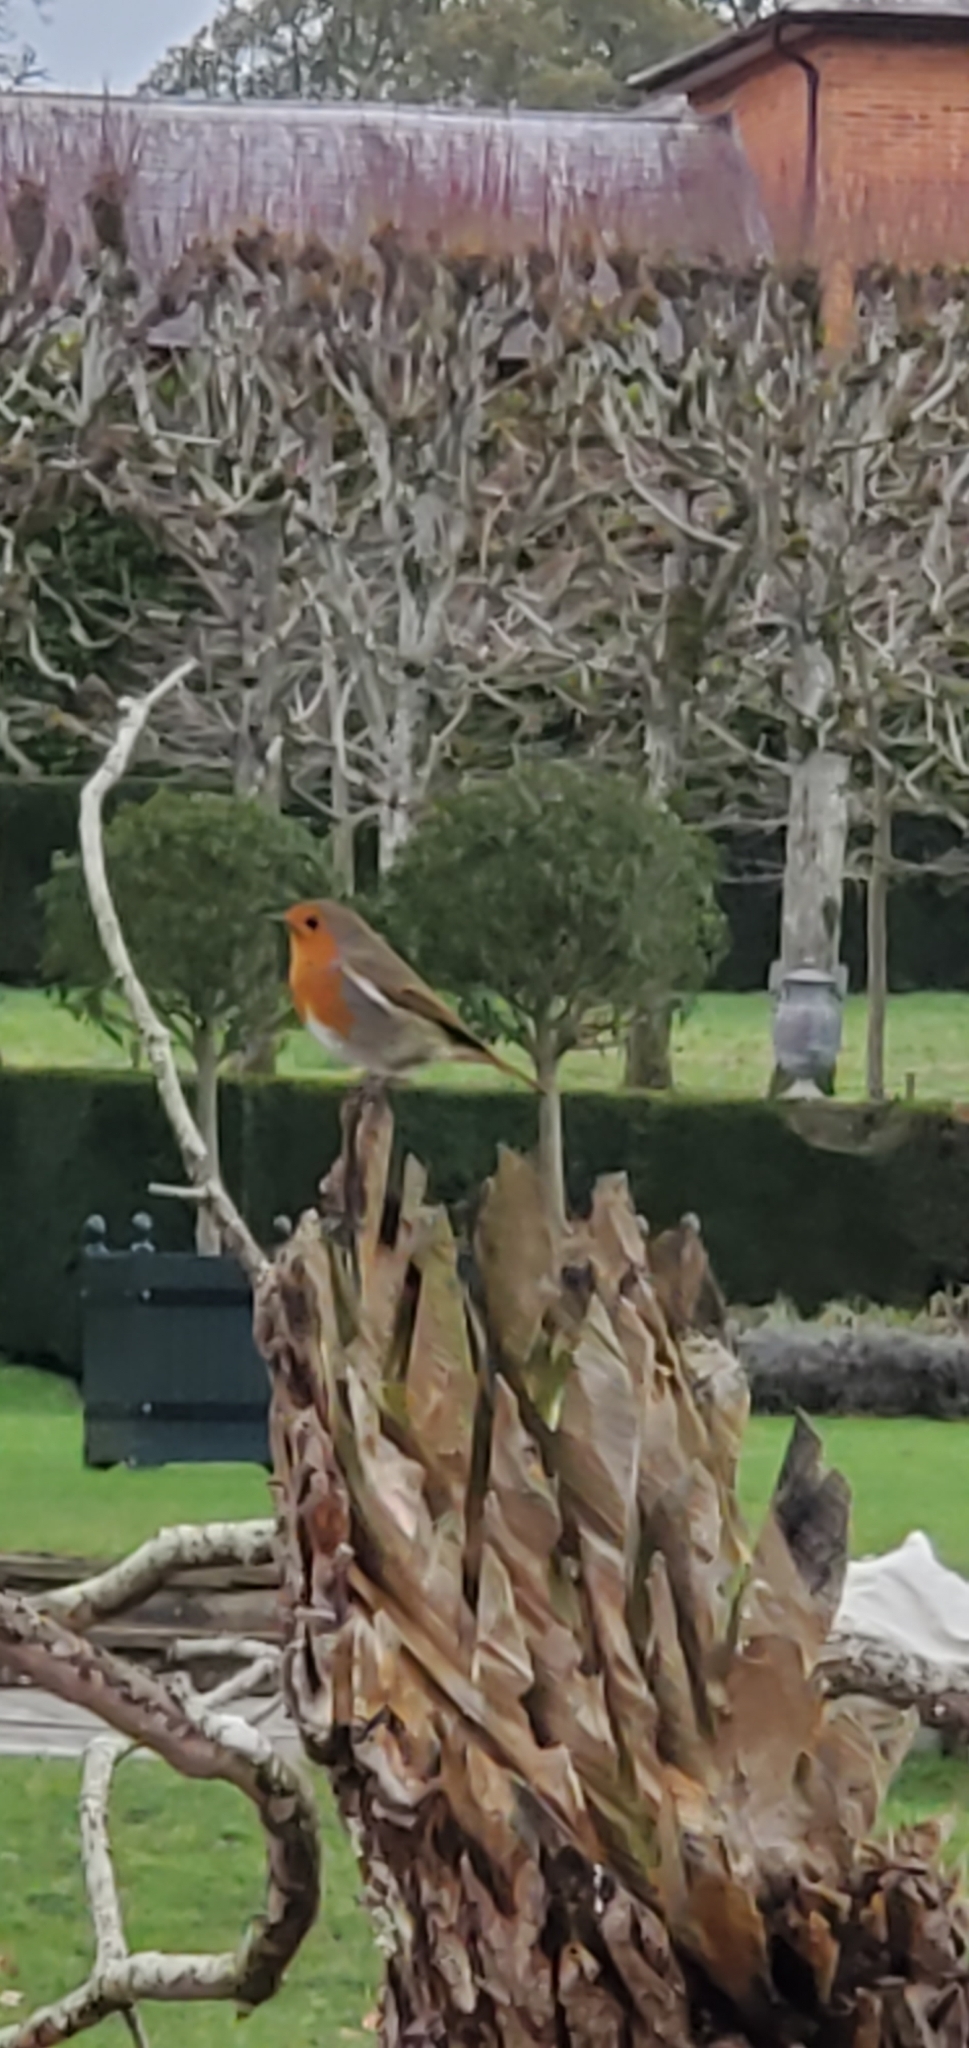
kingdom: Animalia
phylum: Chordata
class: Aves
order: Passeriformes
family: Muscicapidae
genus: Erithacus
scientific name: Erithacus rubecula
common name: European robin
